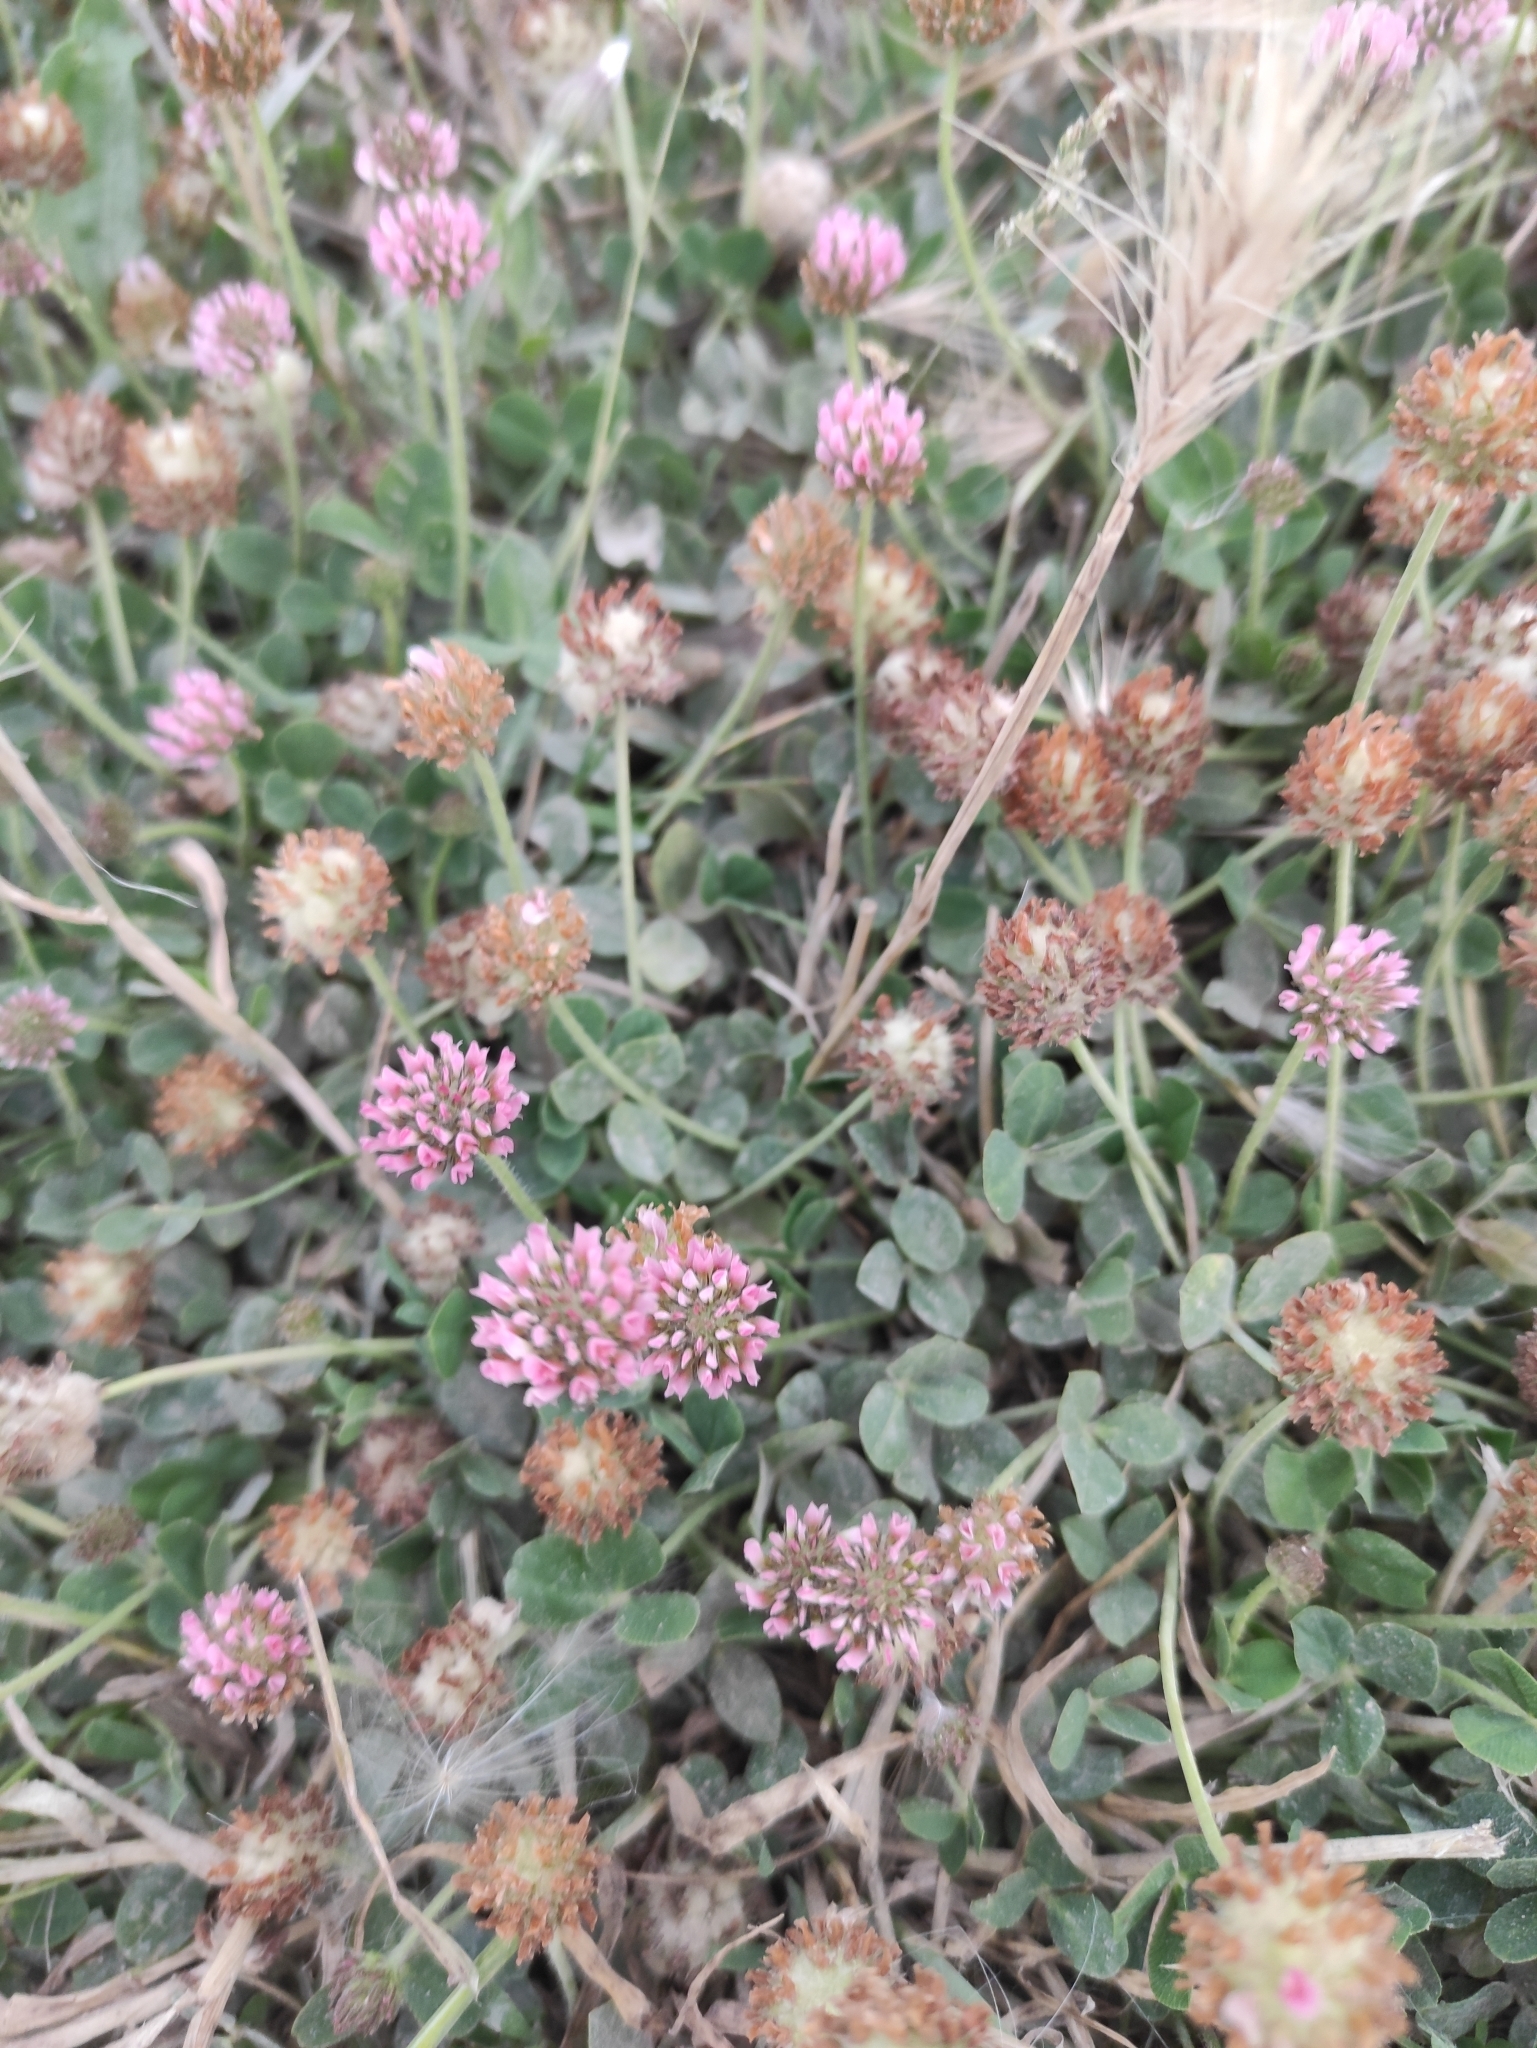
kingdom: Plantae
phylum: Tracheophyta
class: Magnoliopsida
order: Fabales
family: Fabaceae
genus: Trifolium
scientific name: Trifolium fragiferum
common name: Strawberry clover
